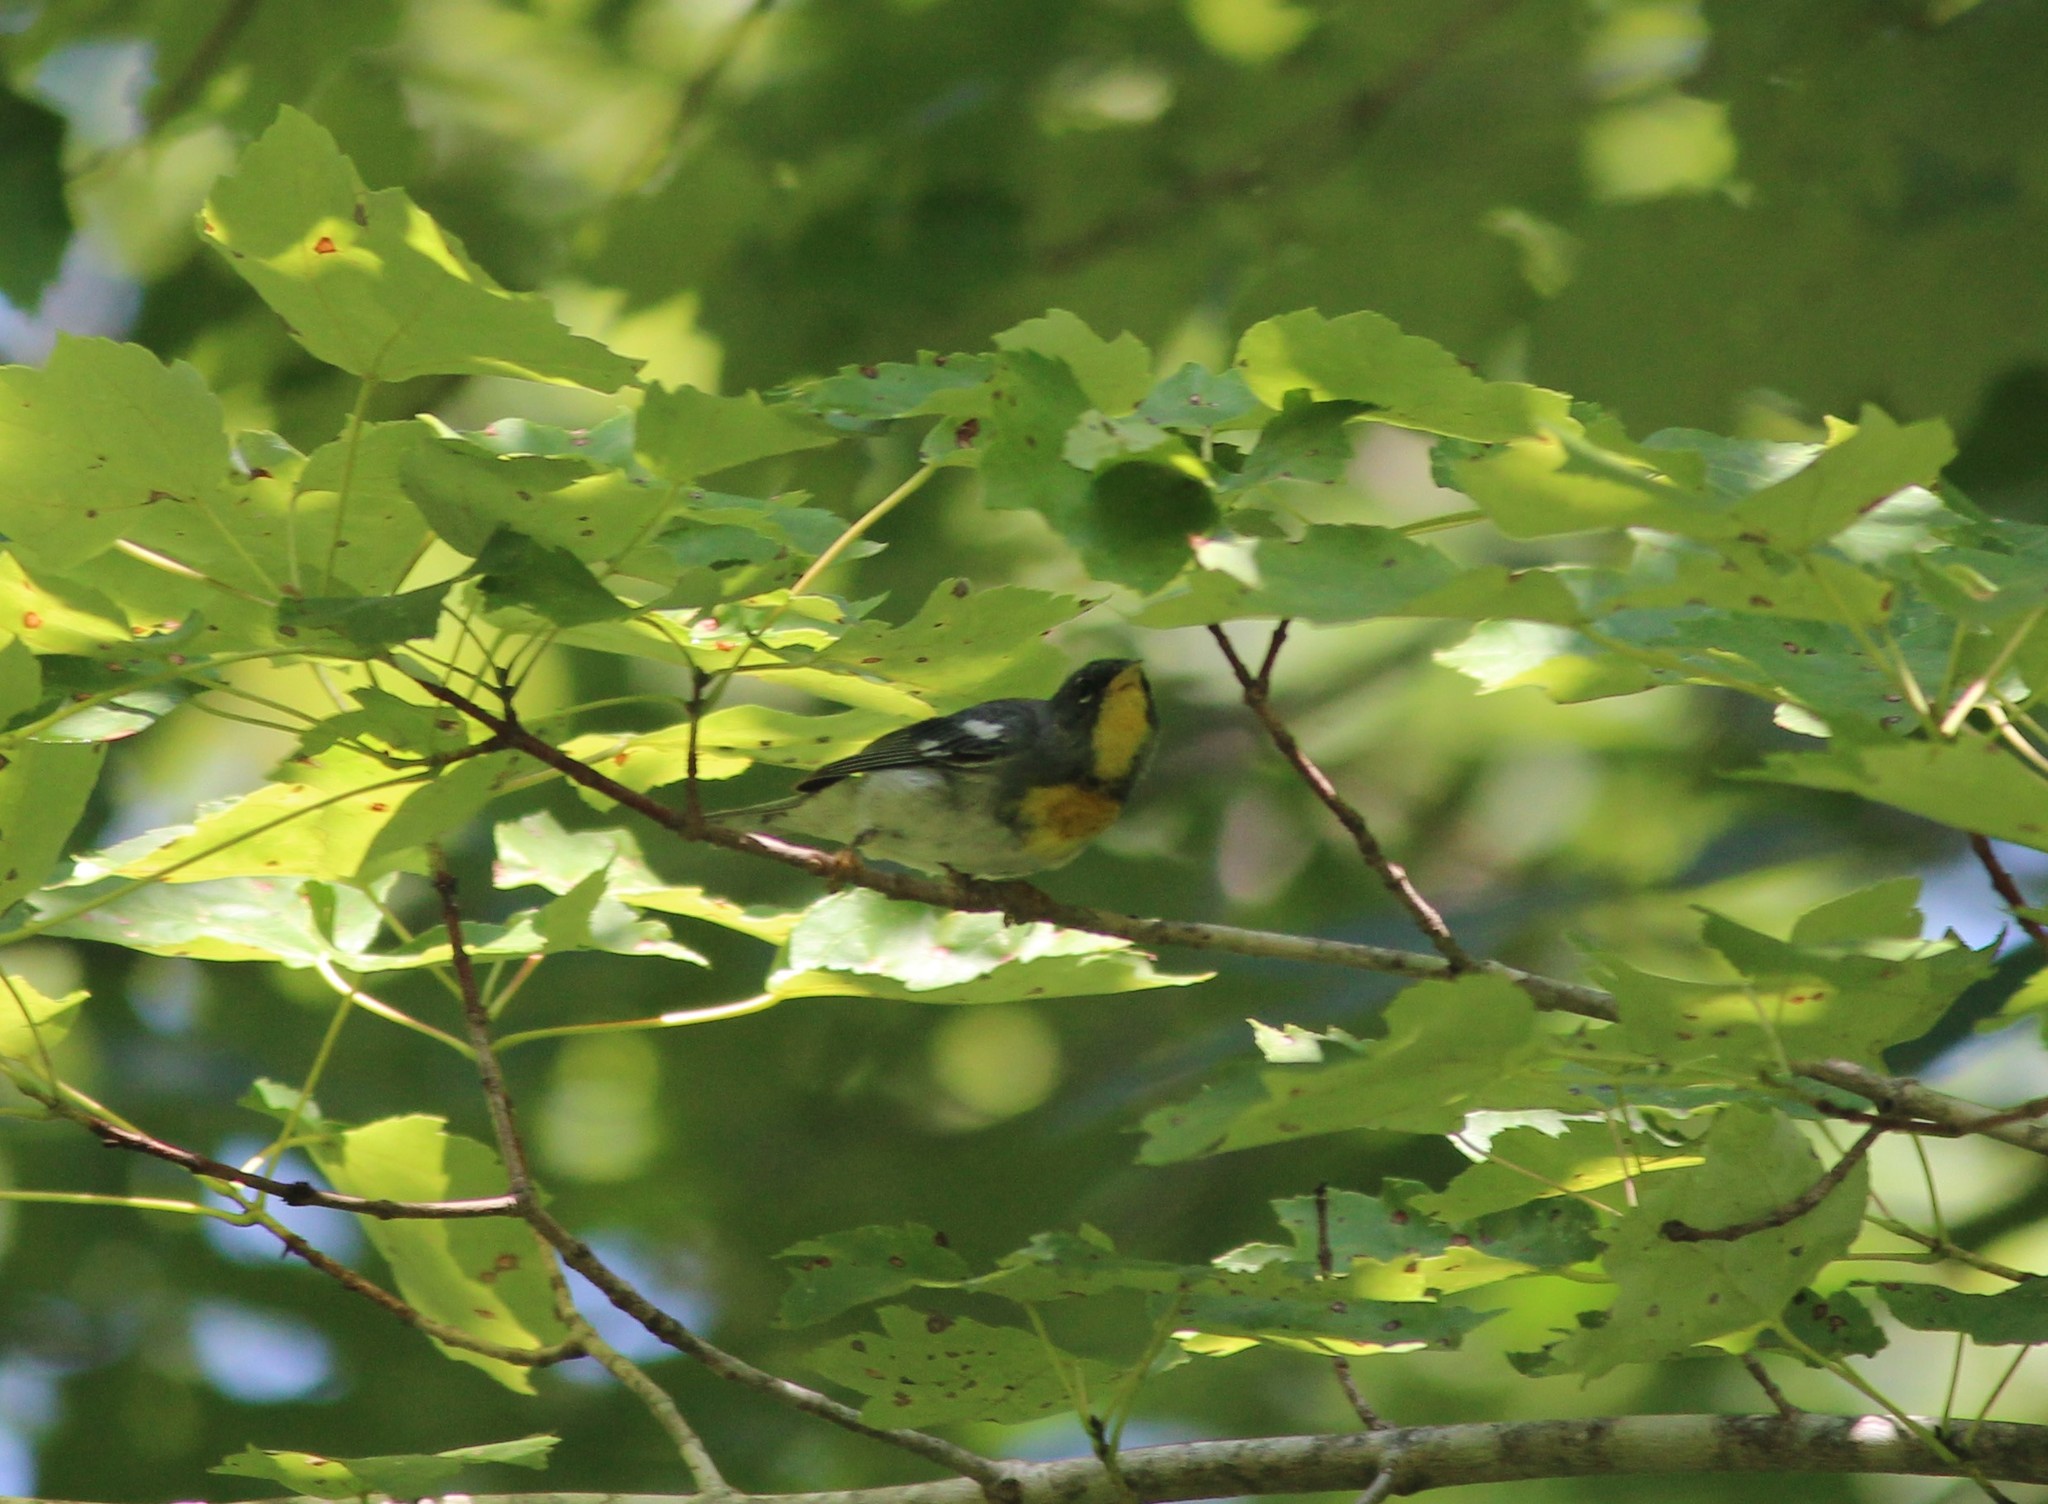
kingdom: Animalia
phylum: Chordata
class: Aves
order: Passeriformes
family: Parulidae
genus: Setophaga
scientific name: Setophaga americana
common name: Northern parula
